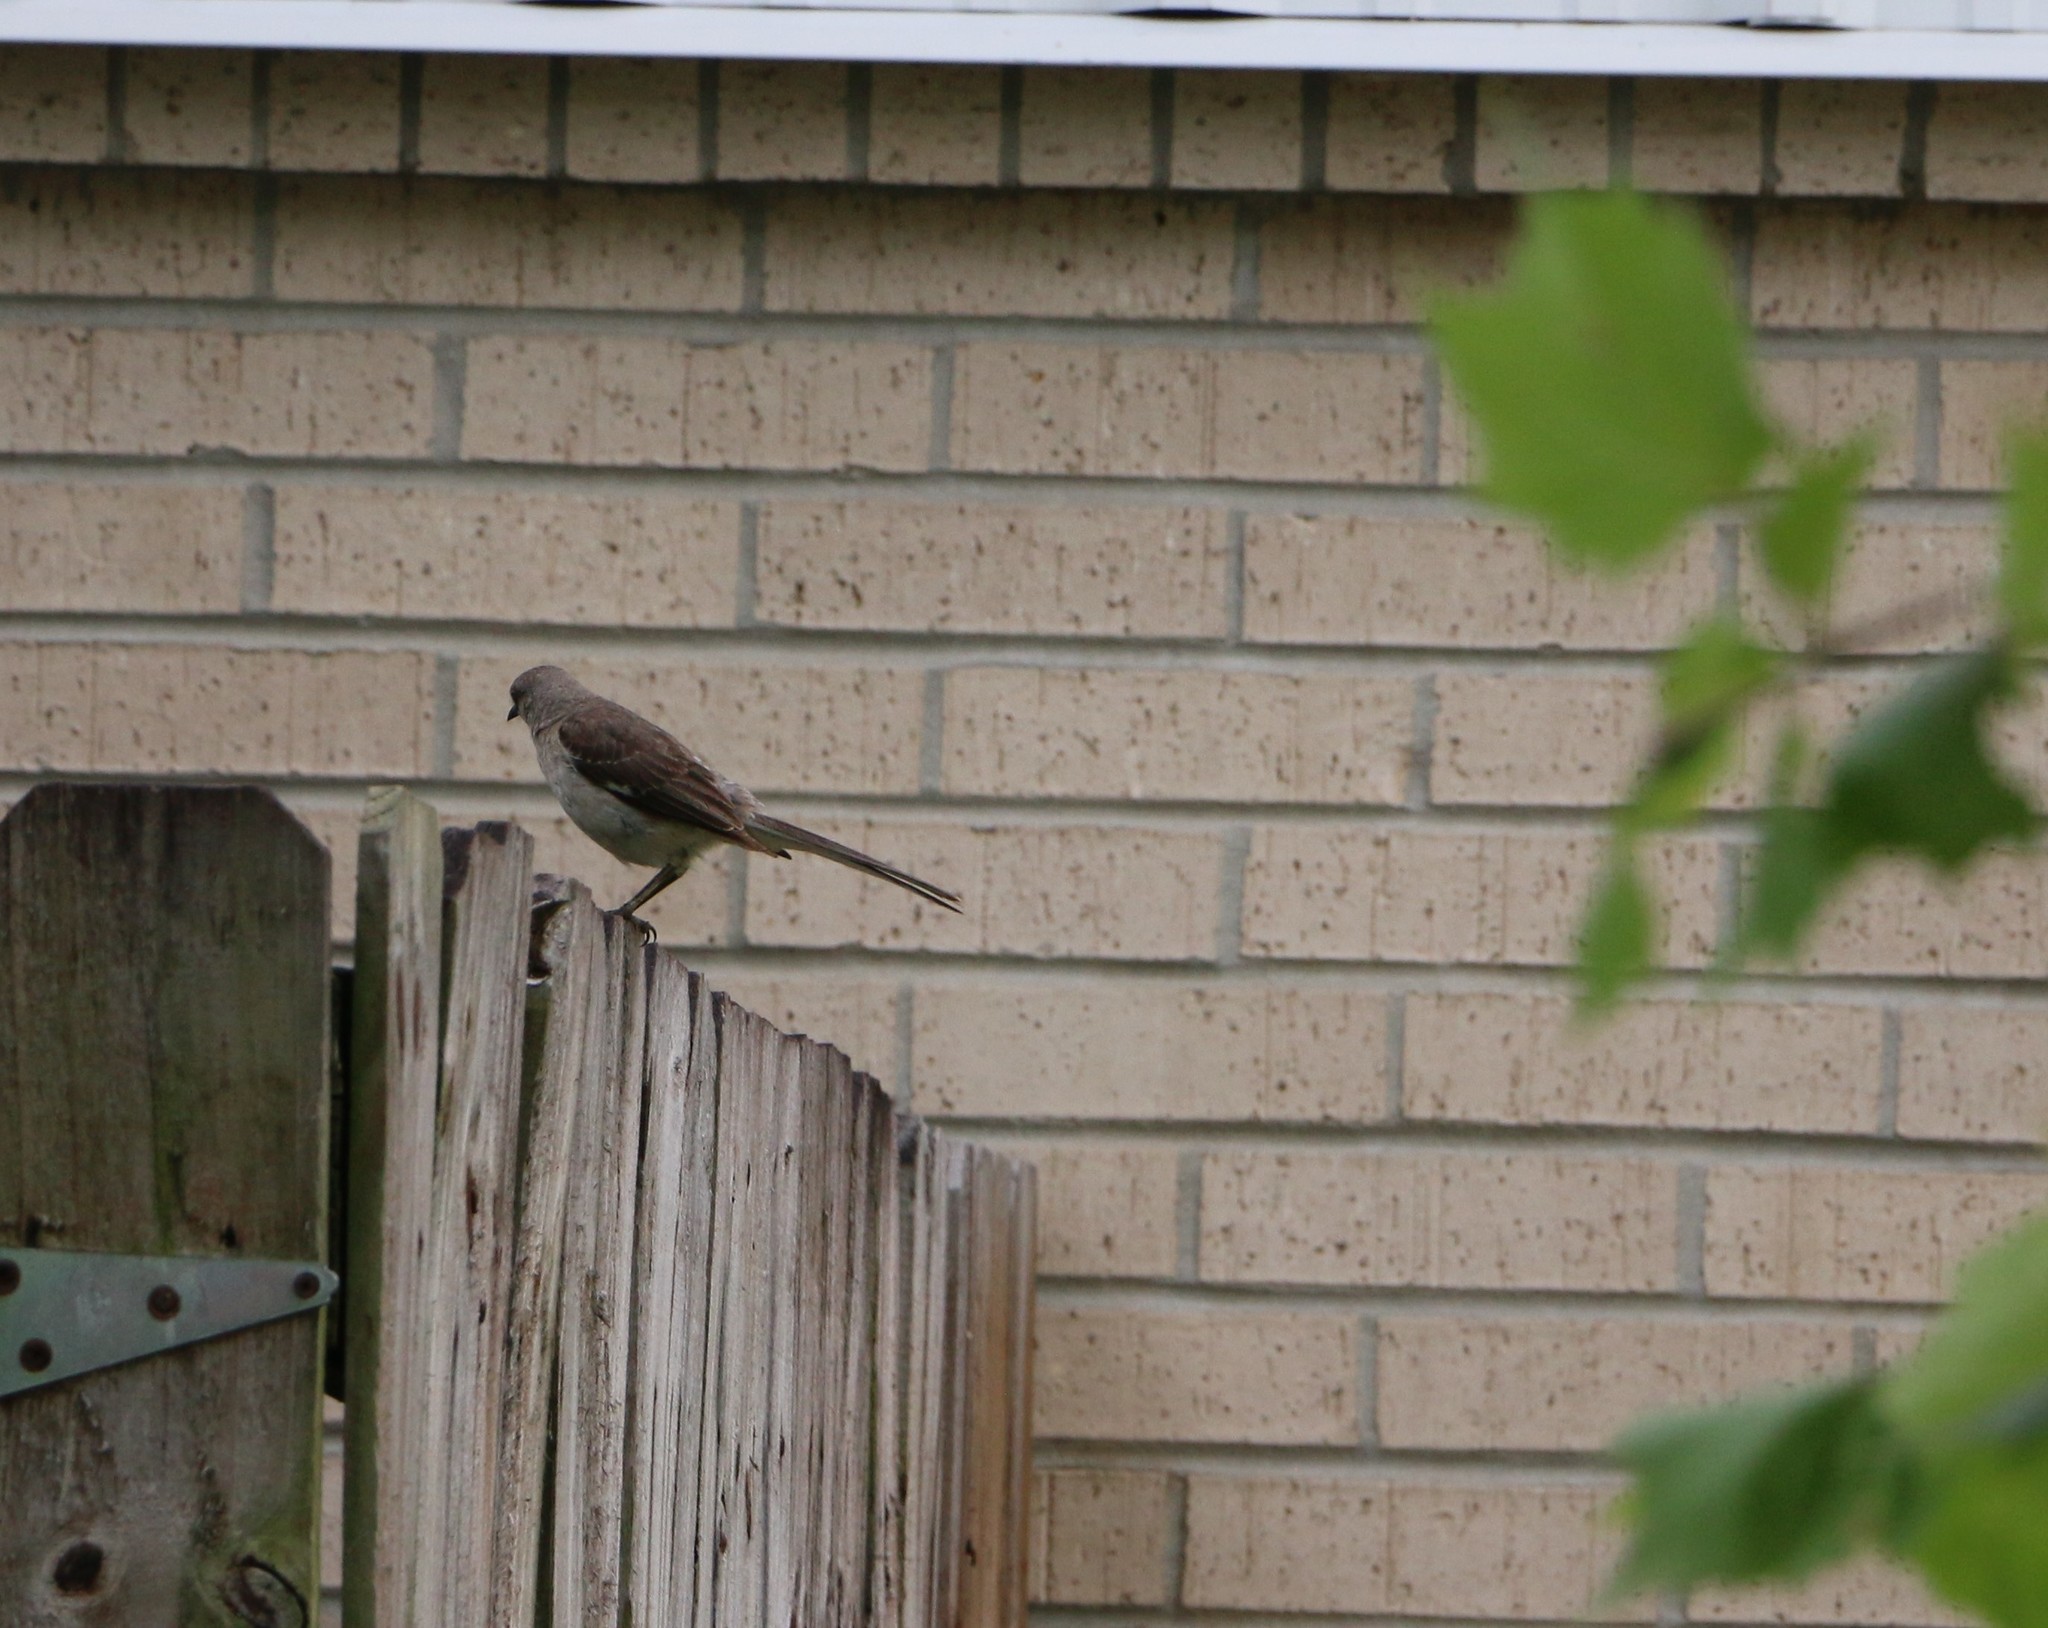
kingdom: Animalia
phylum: Chordata
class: Aves
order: Passeriformes
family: Mimidae
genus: Mimus
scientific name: Mimus polyglottos
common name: Northern mockingbird
